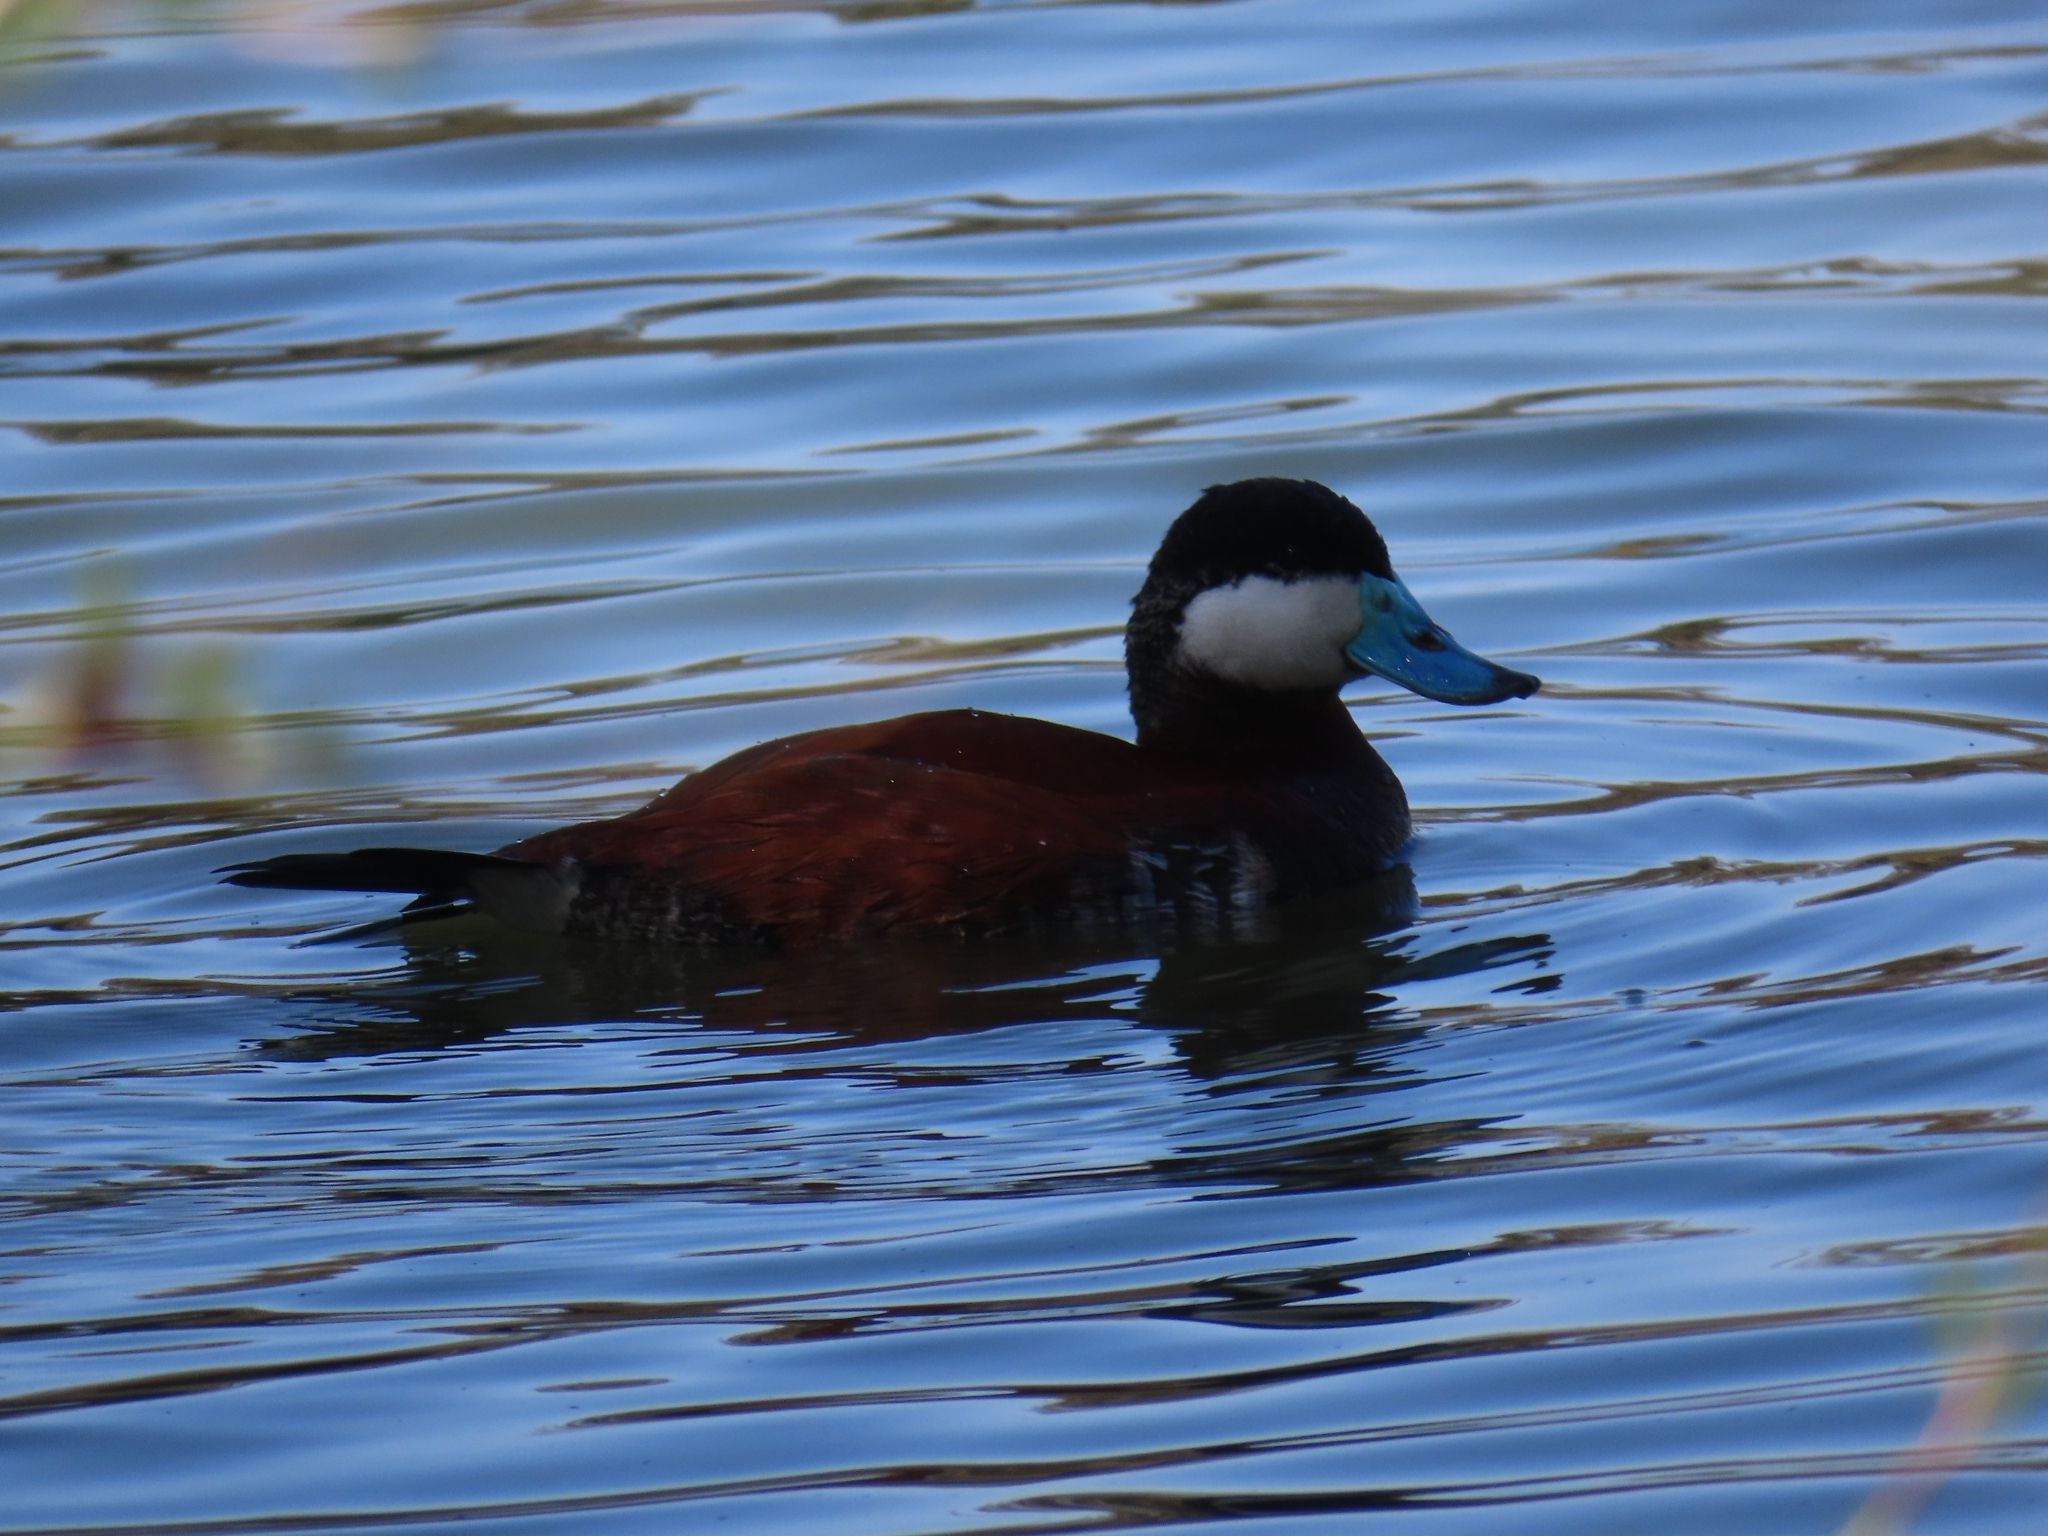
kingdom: Animalia
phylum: Chordata
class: Aves
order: Anseriformes
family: Anatidae
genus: Oxyura
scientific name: Oxyura jamaicensis
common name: Ruddy duck
